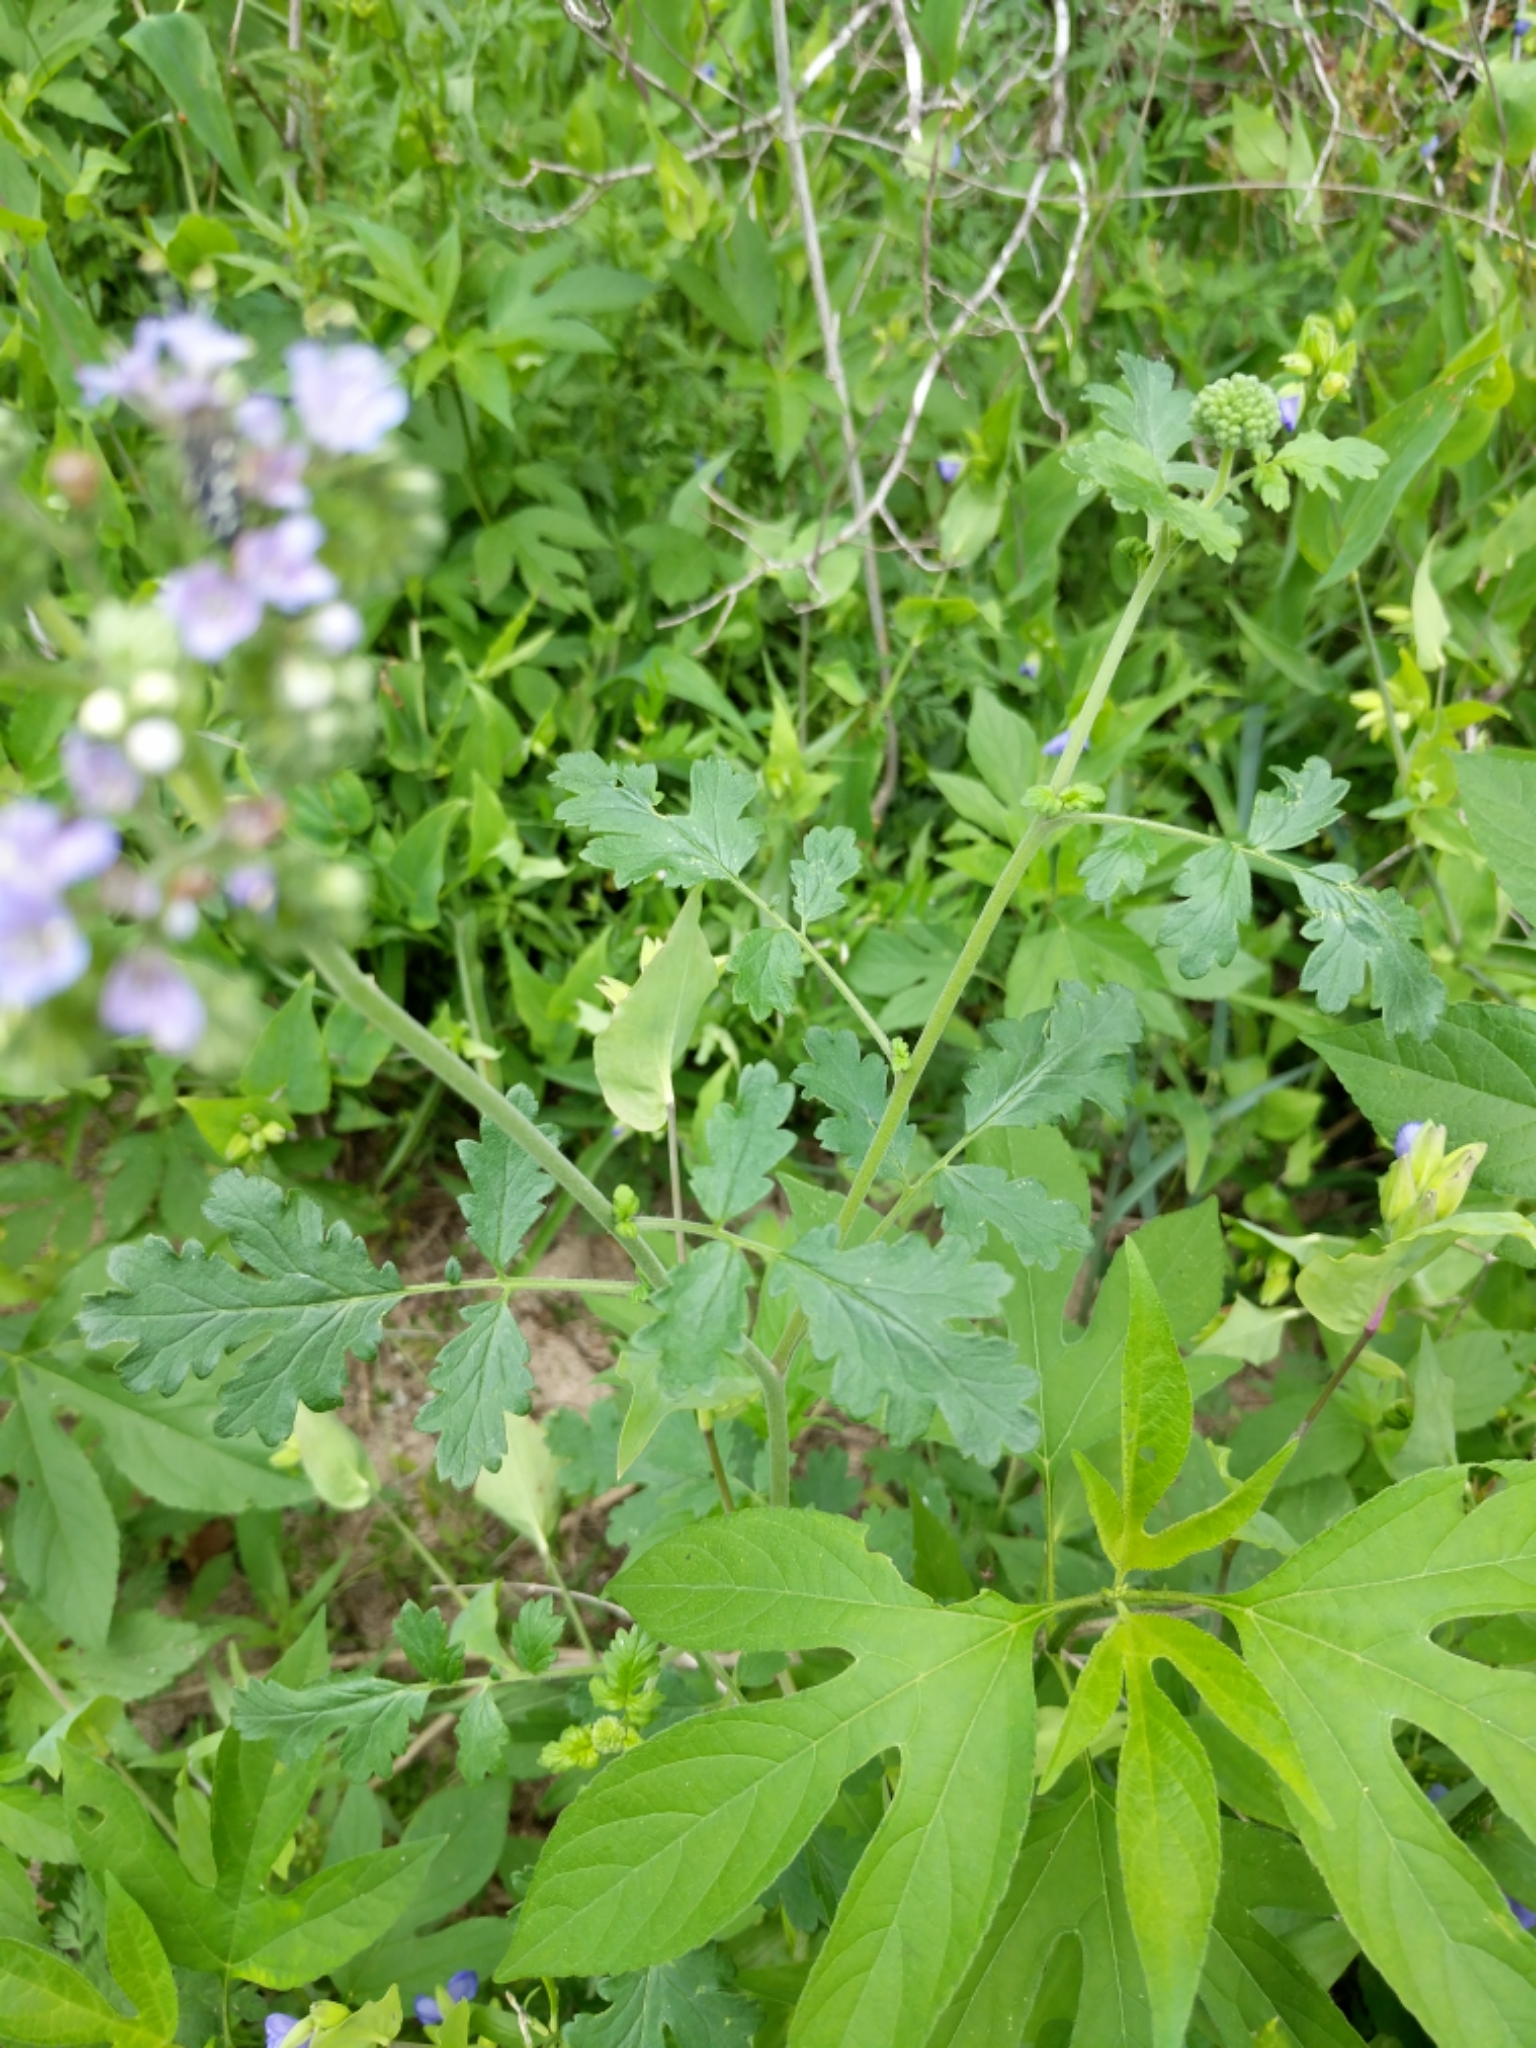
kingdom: Plantae
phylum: Tracheophyta
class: Magnoliopsida
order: Boraginales
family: Hydrophyllaceae
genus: Phacelia
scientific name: Phacelia congesta
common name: Blue curls
